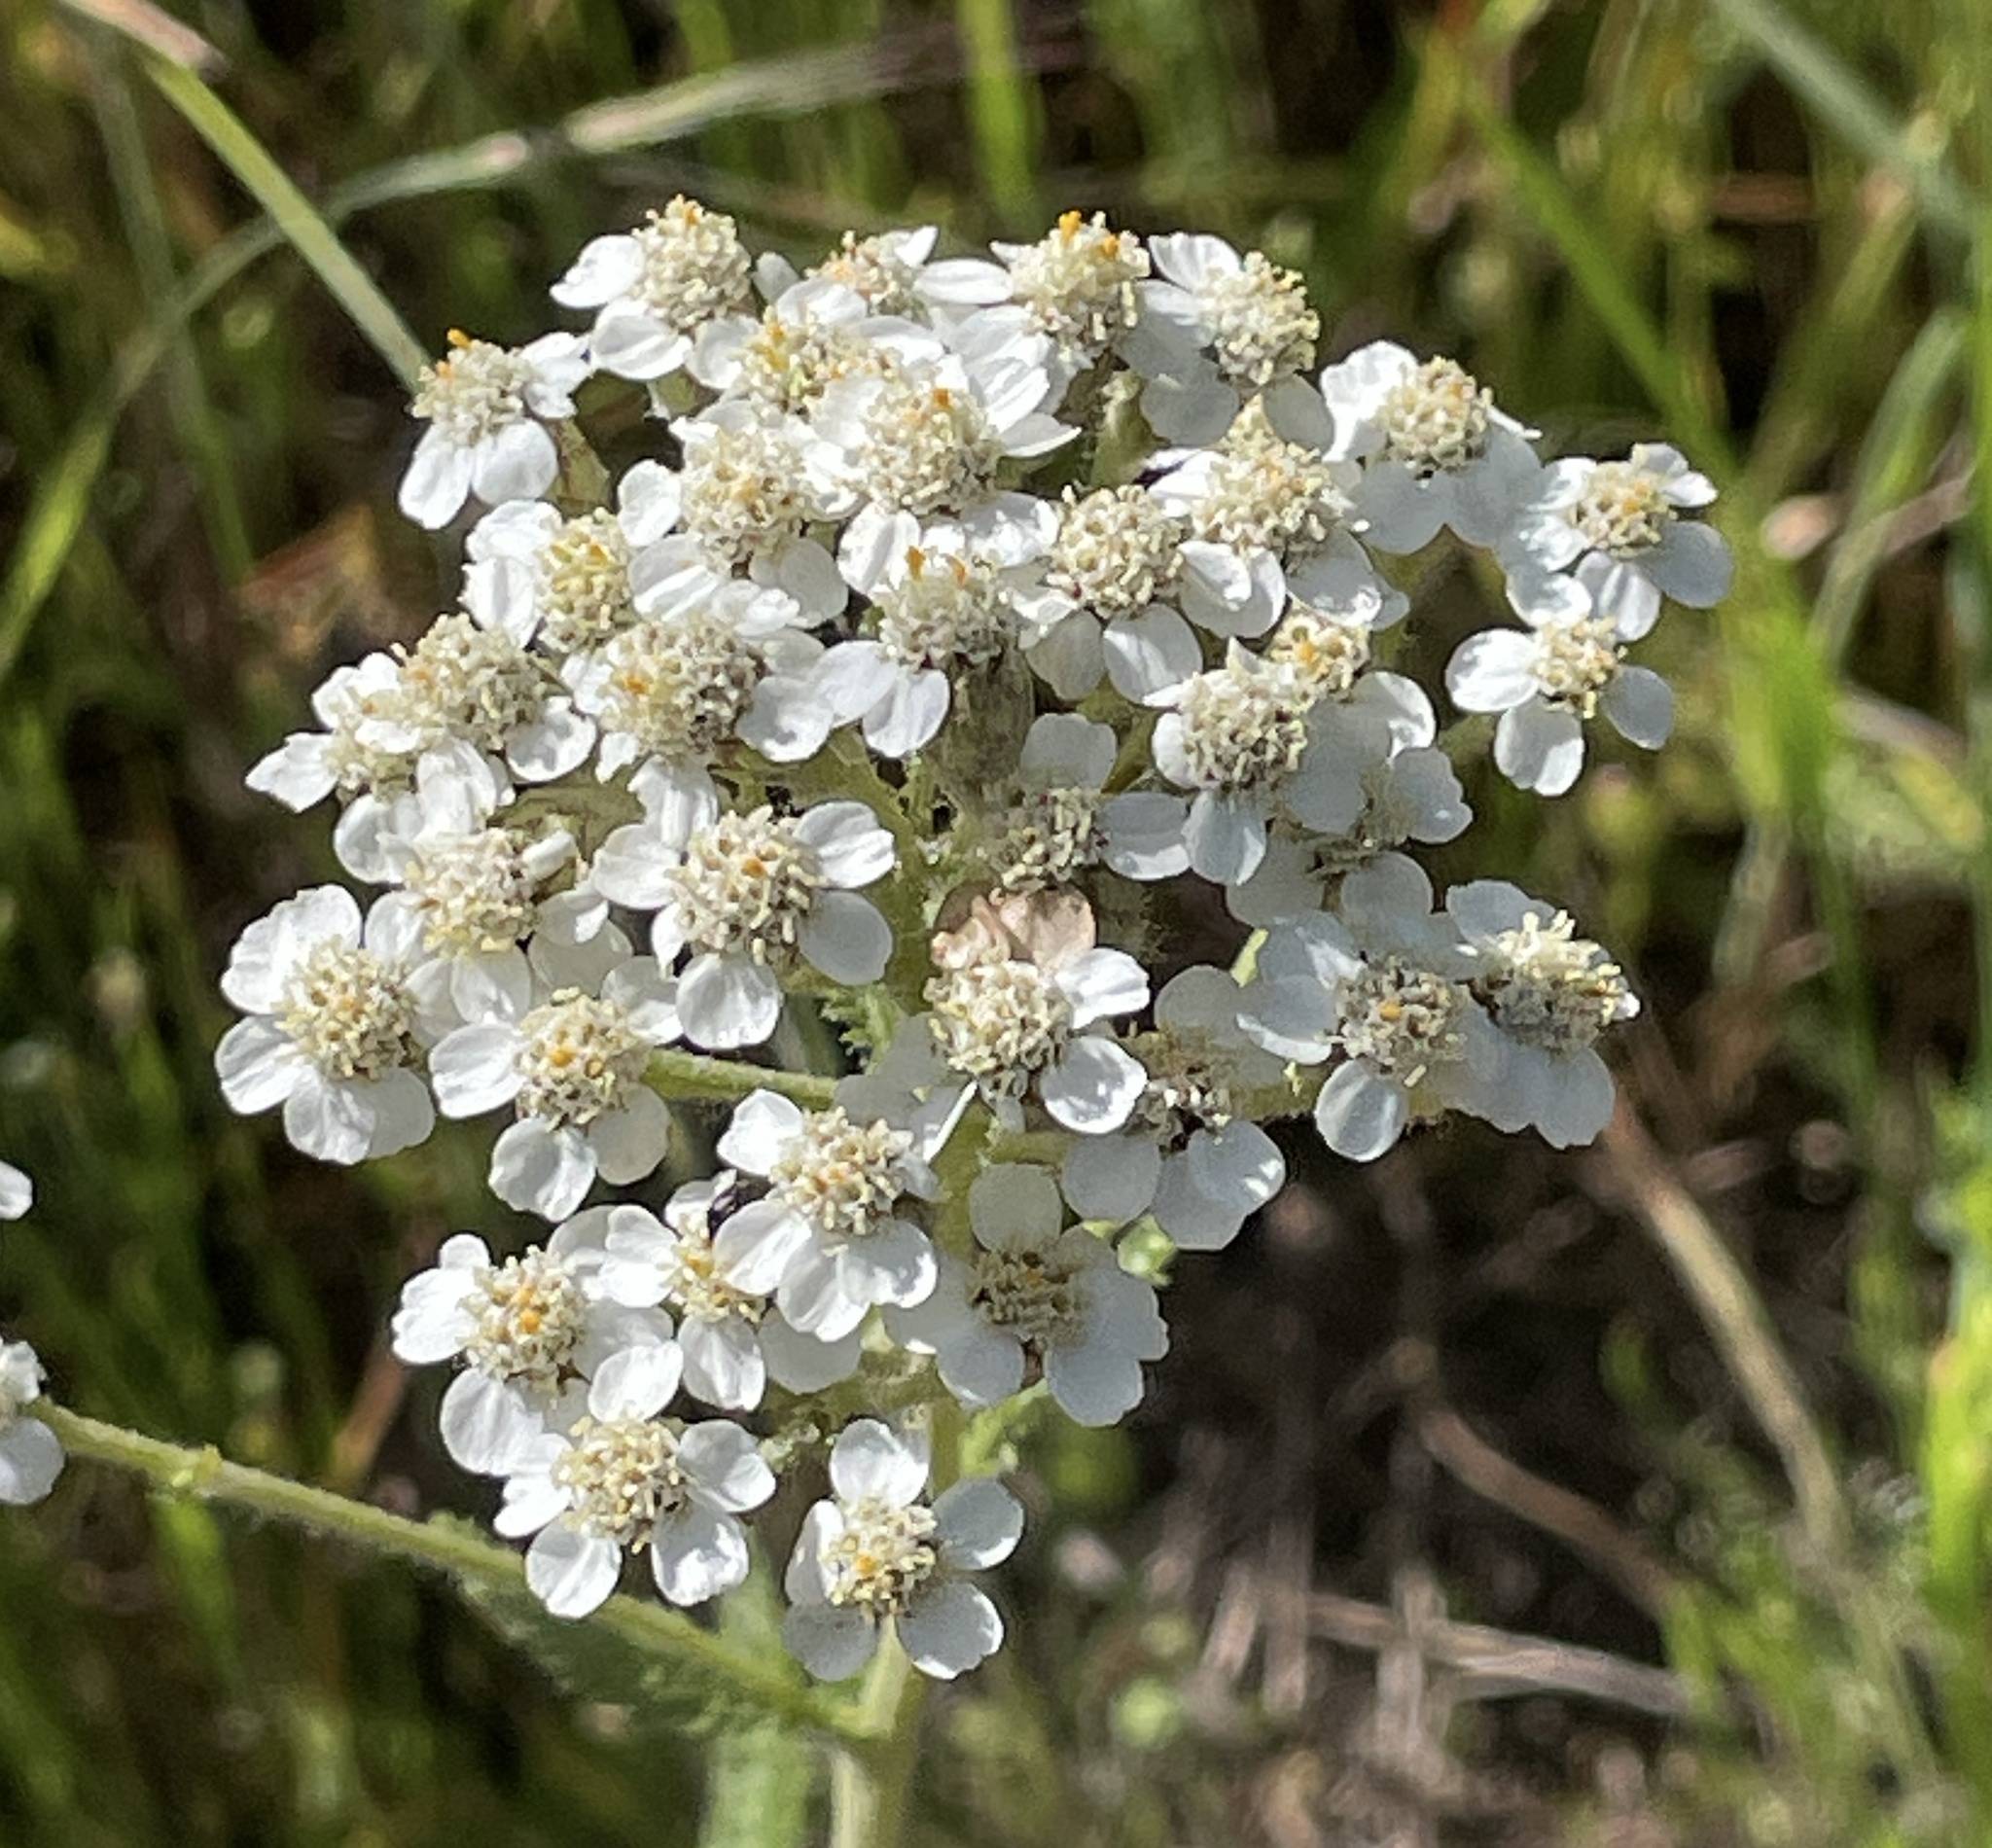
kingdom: Plantae
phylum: Tracheophyta
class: Magnoliopsida
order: Asterales
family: Asteraceae
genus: Achillea
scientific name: Achillea millefolium
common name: Yarrow
